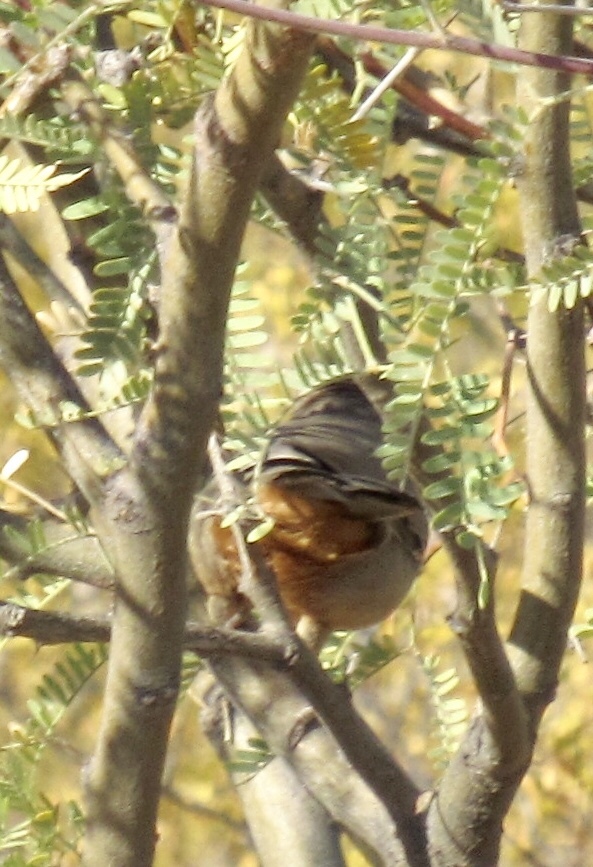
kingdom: Animalia
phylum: Chordata
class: Aves
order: Passeriformes
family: Passerellidae
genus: Melozone
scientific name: Melozone fusca
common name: Canyon towhee
